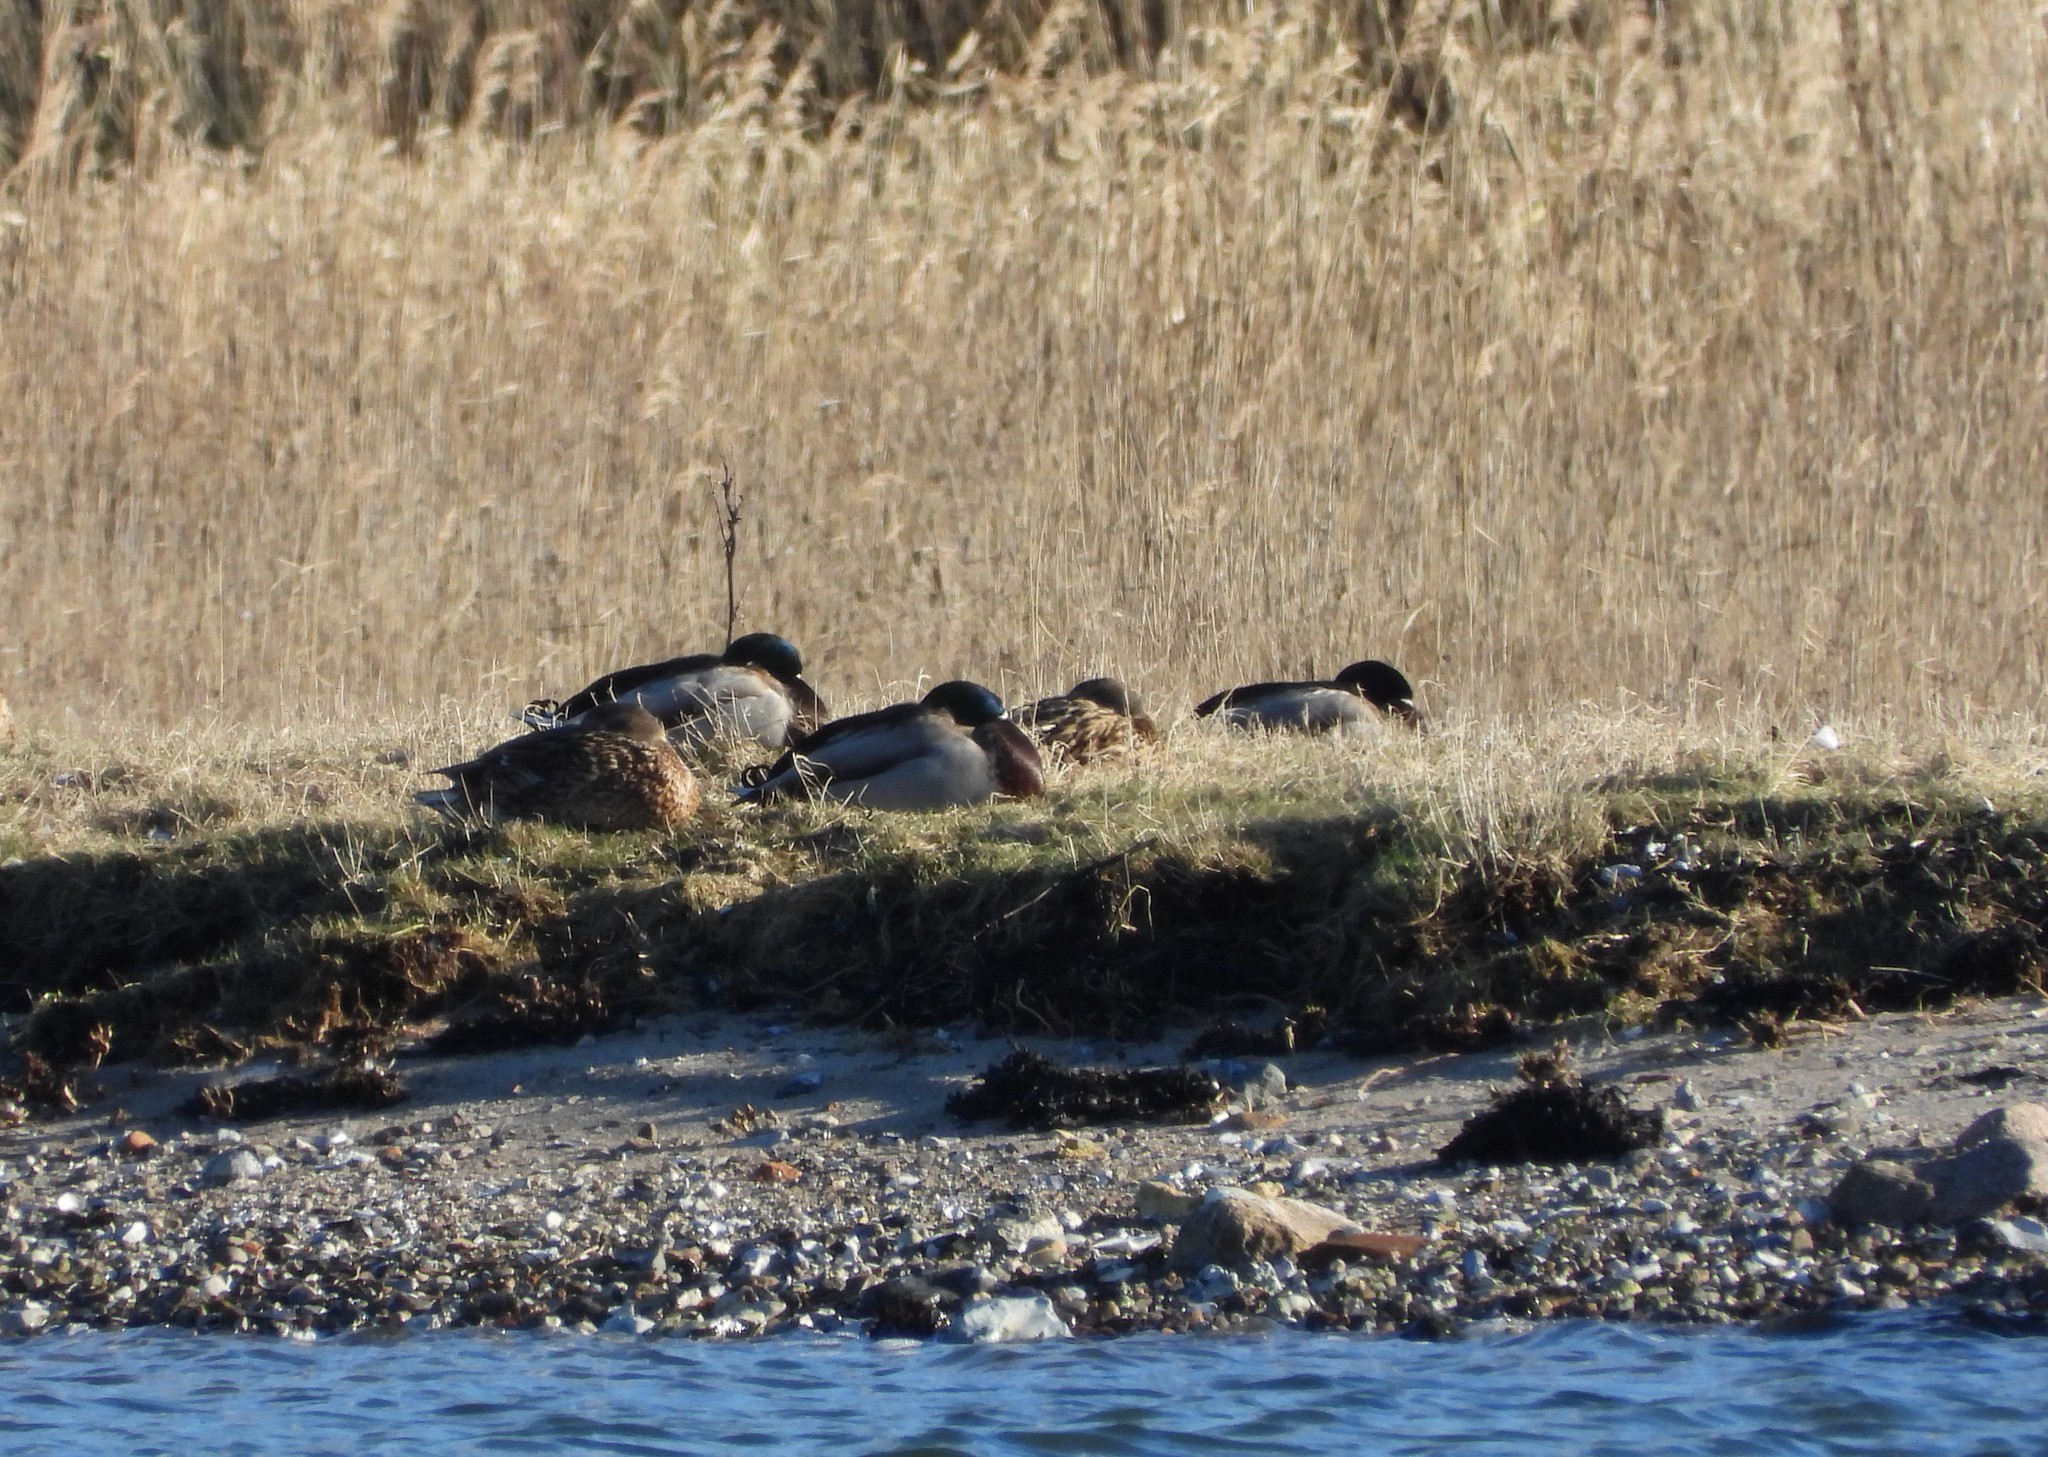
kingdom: Animalia
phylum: Chordata
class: Aves
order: Anseriformes
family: Anatidae
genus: Anas
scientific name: Anas platyrhynchos
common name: Mallard
